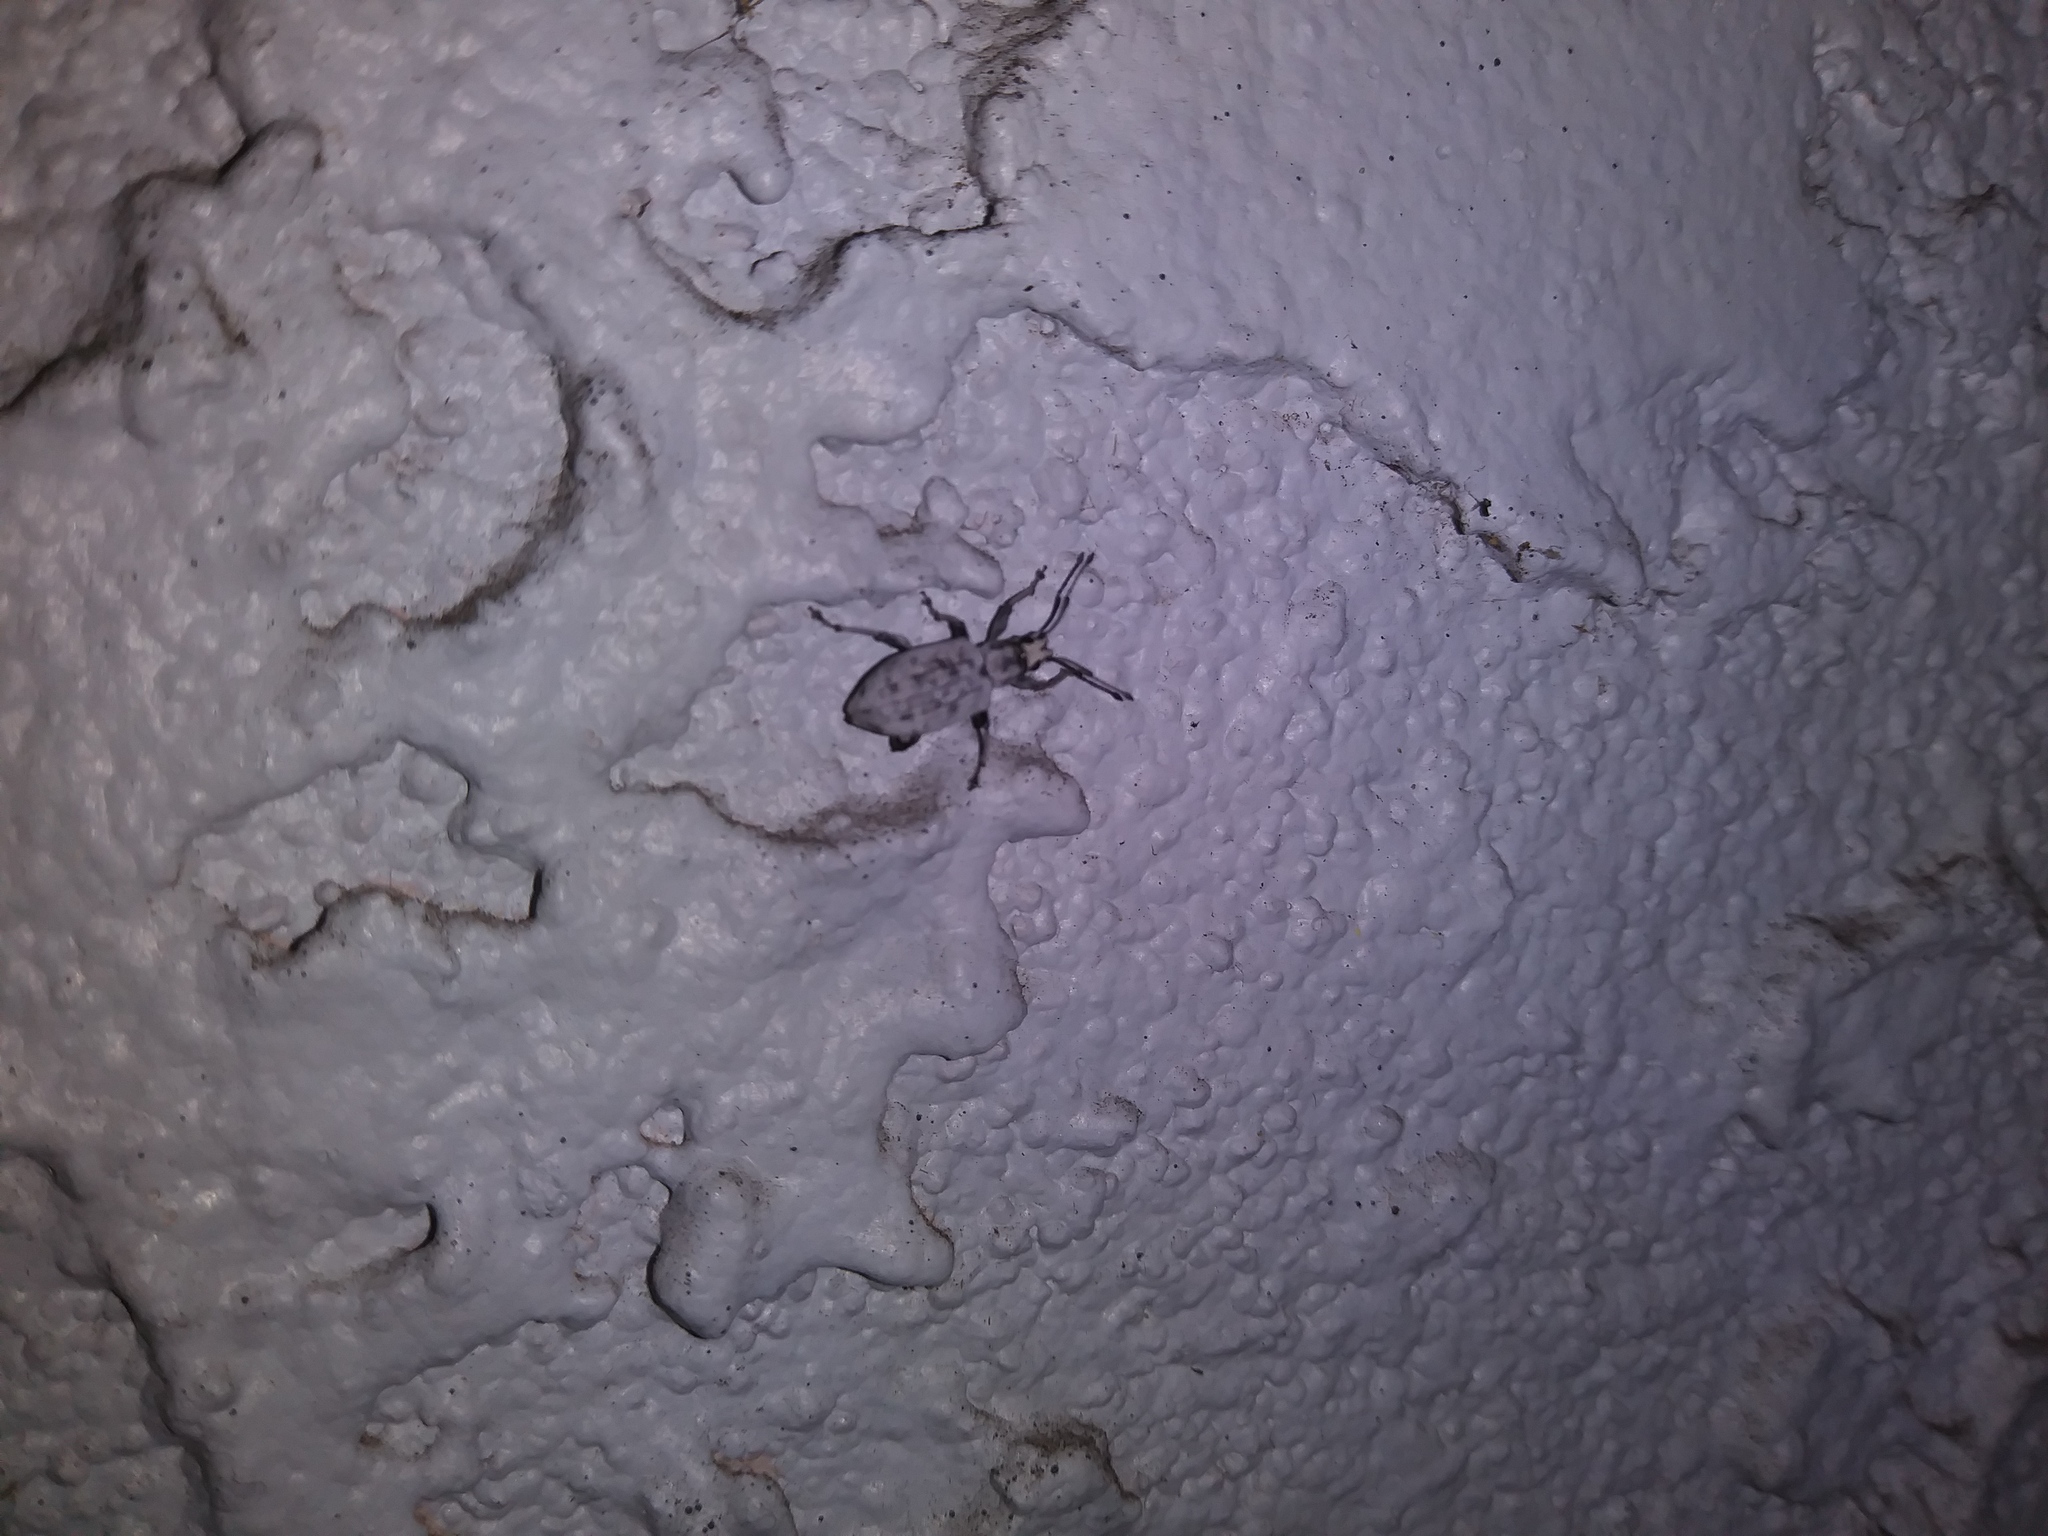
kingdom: Animalia
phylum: Arthropoda
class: Insecta
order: Coleoptera
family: Curculionidae
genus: Myllocerus
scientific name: Myllocerus undecimpustulatus
